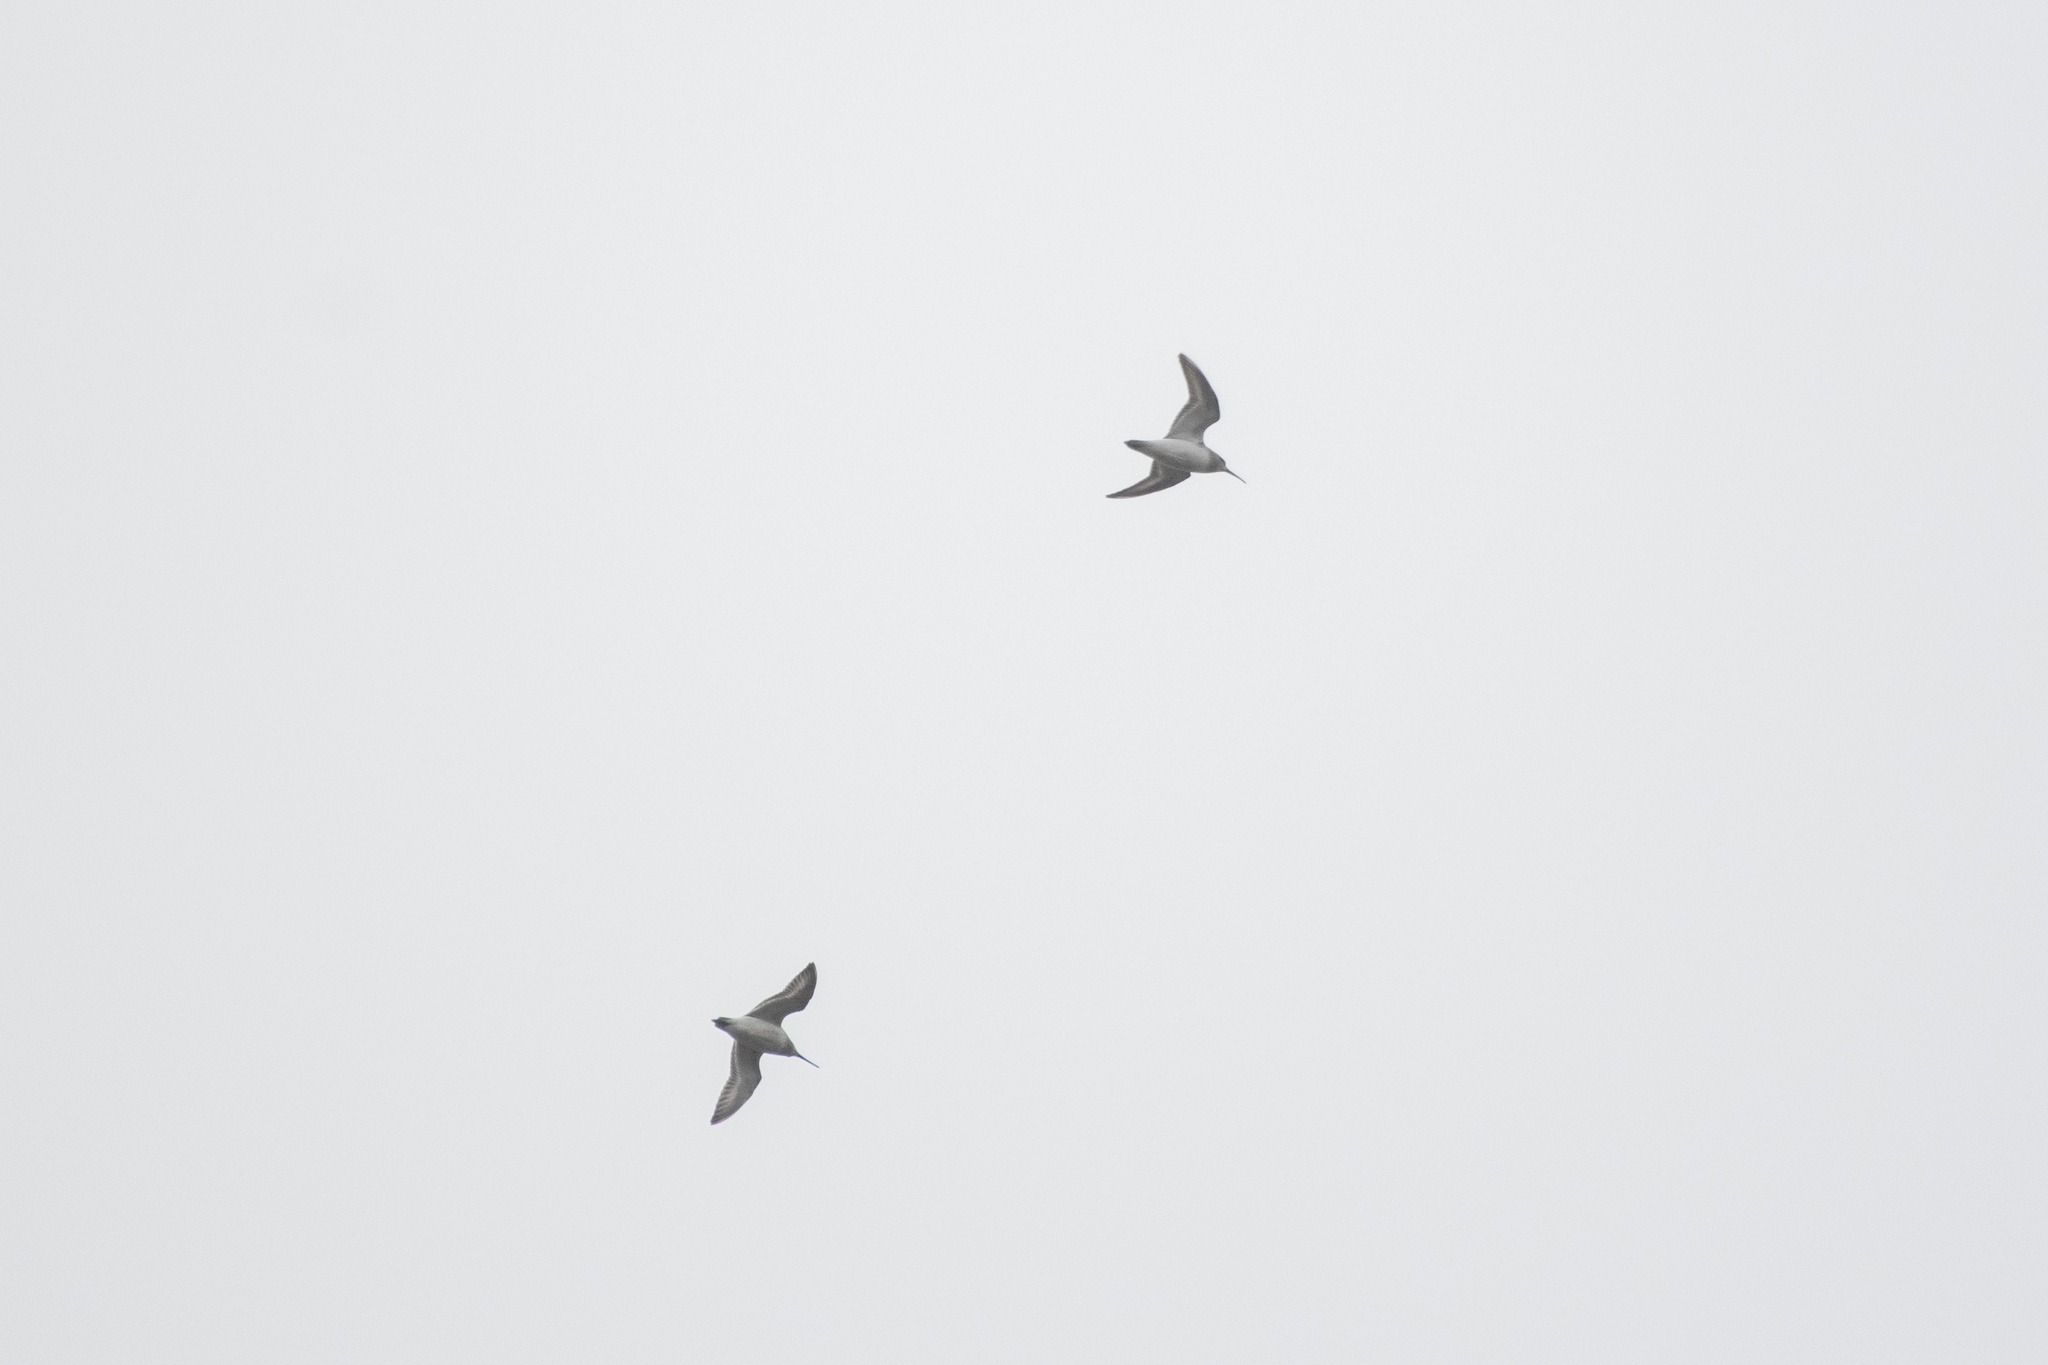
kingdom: Animalia
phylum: Chordata
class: Aves
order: Charadriiformes
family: Scolopacidae
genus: Calidris
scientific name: Calidris alpina
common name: Dunlin
